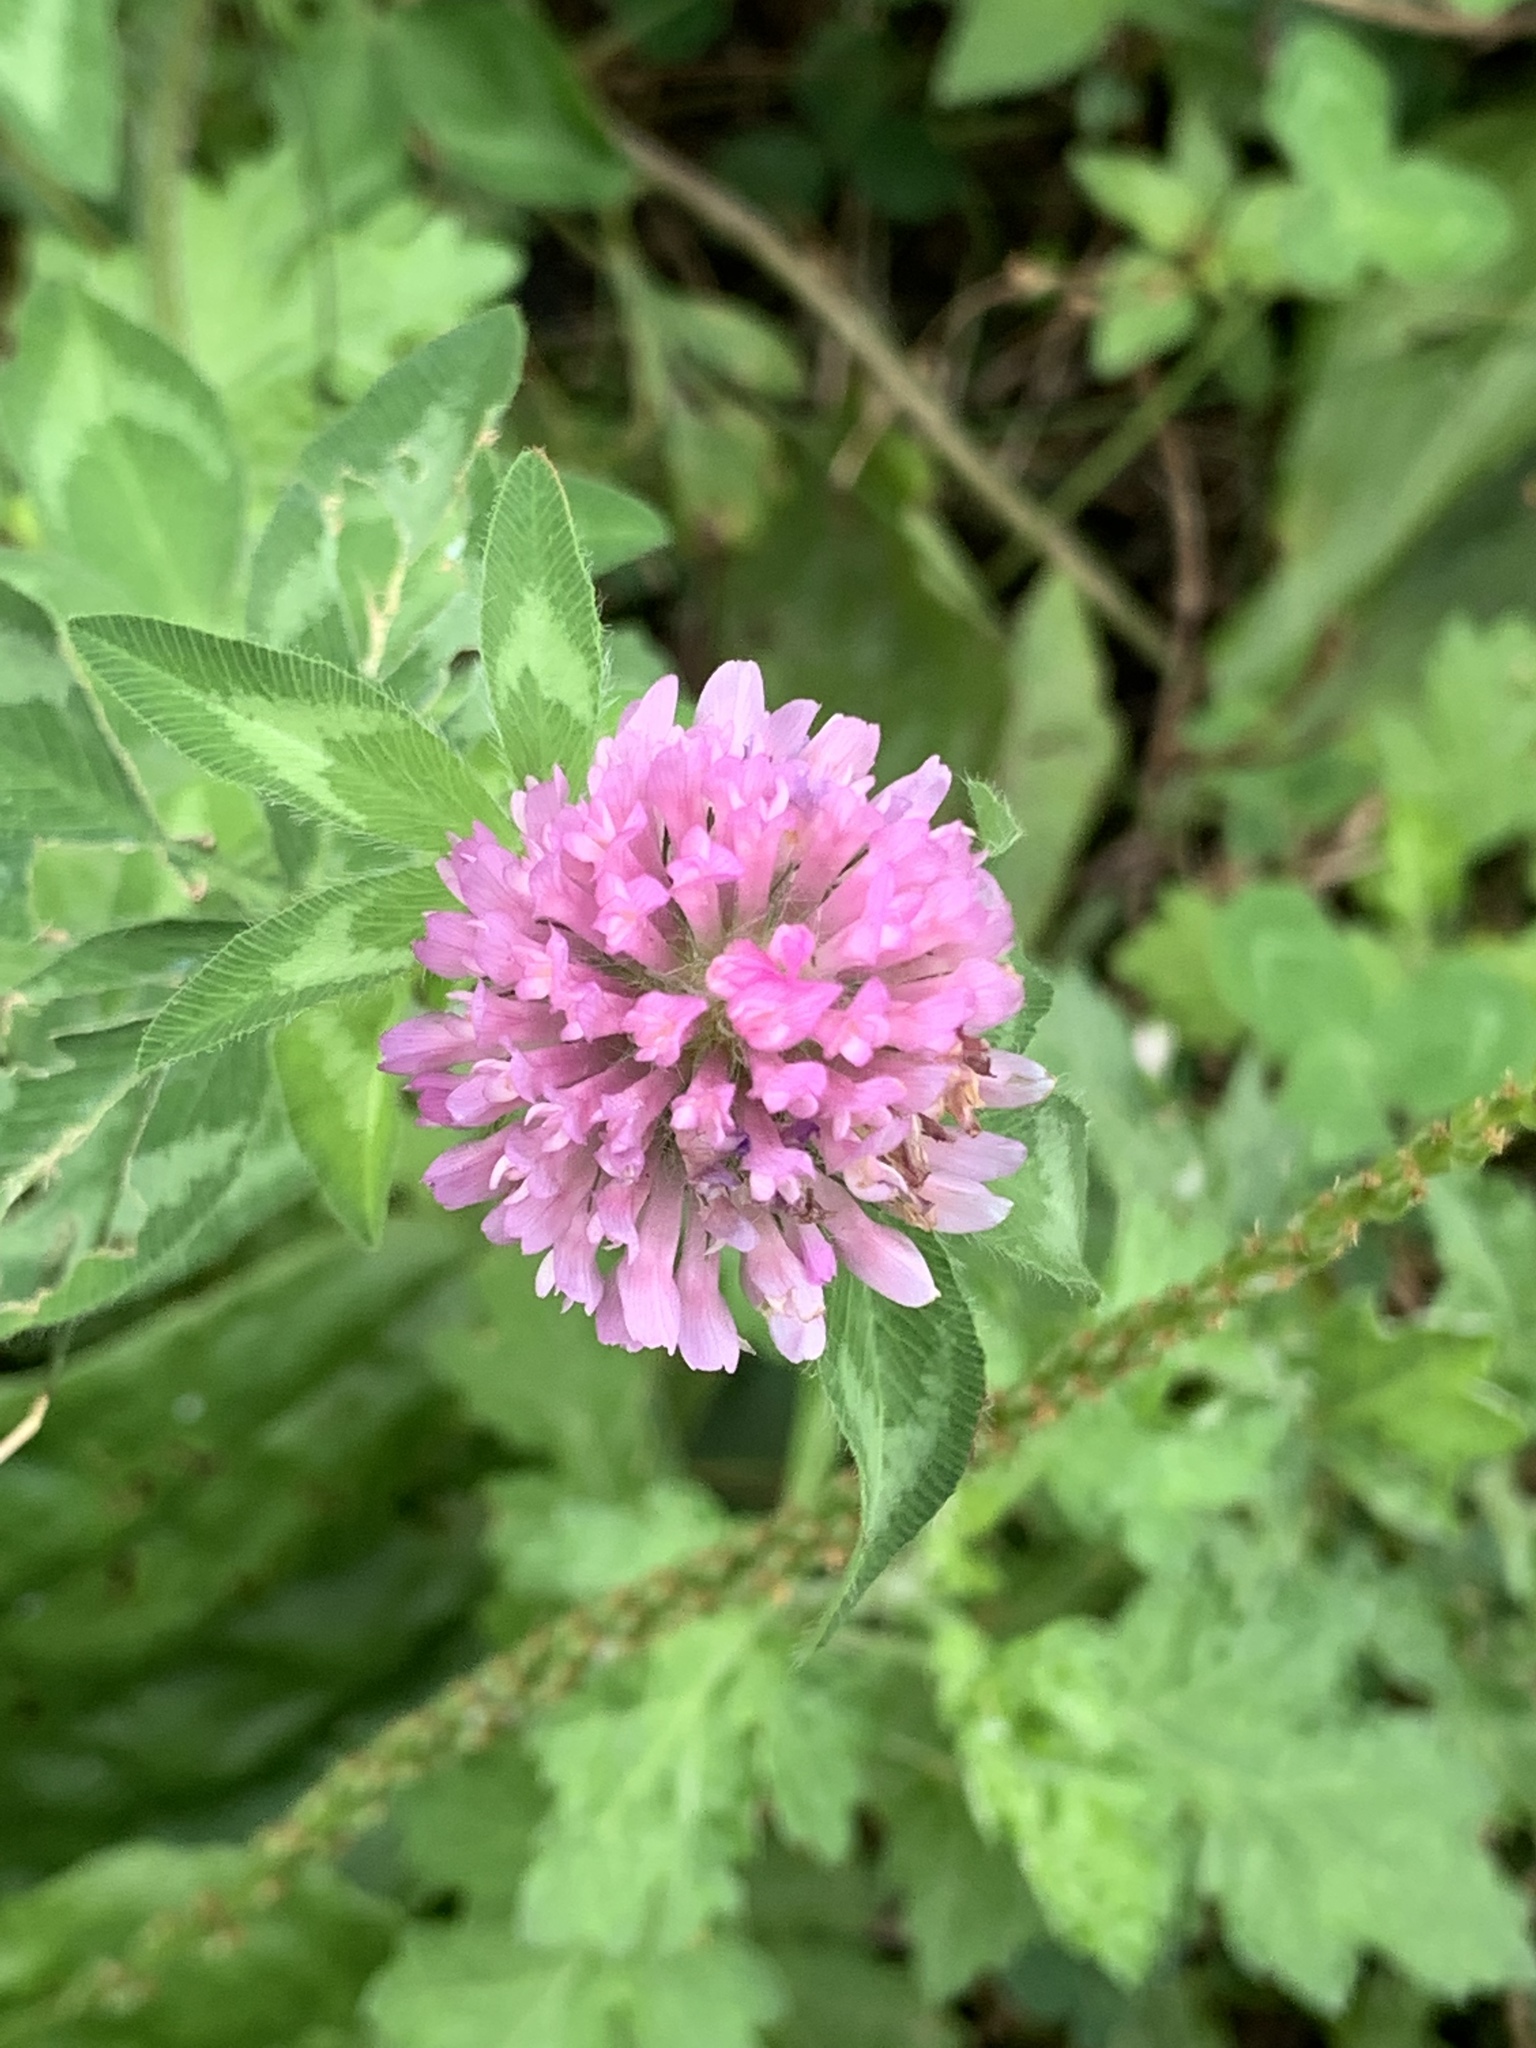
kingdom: Plantae
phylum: Tracheophyta
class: Magnoliopsida
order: Fabales
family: Fabaceae
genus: Trifolium
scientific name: Trifolium pratense
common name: Red clover
